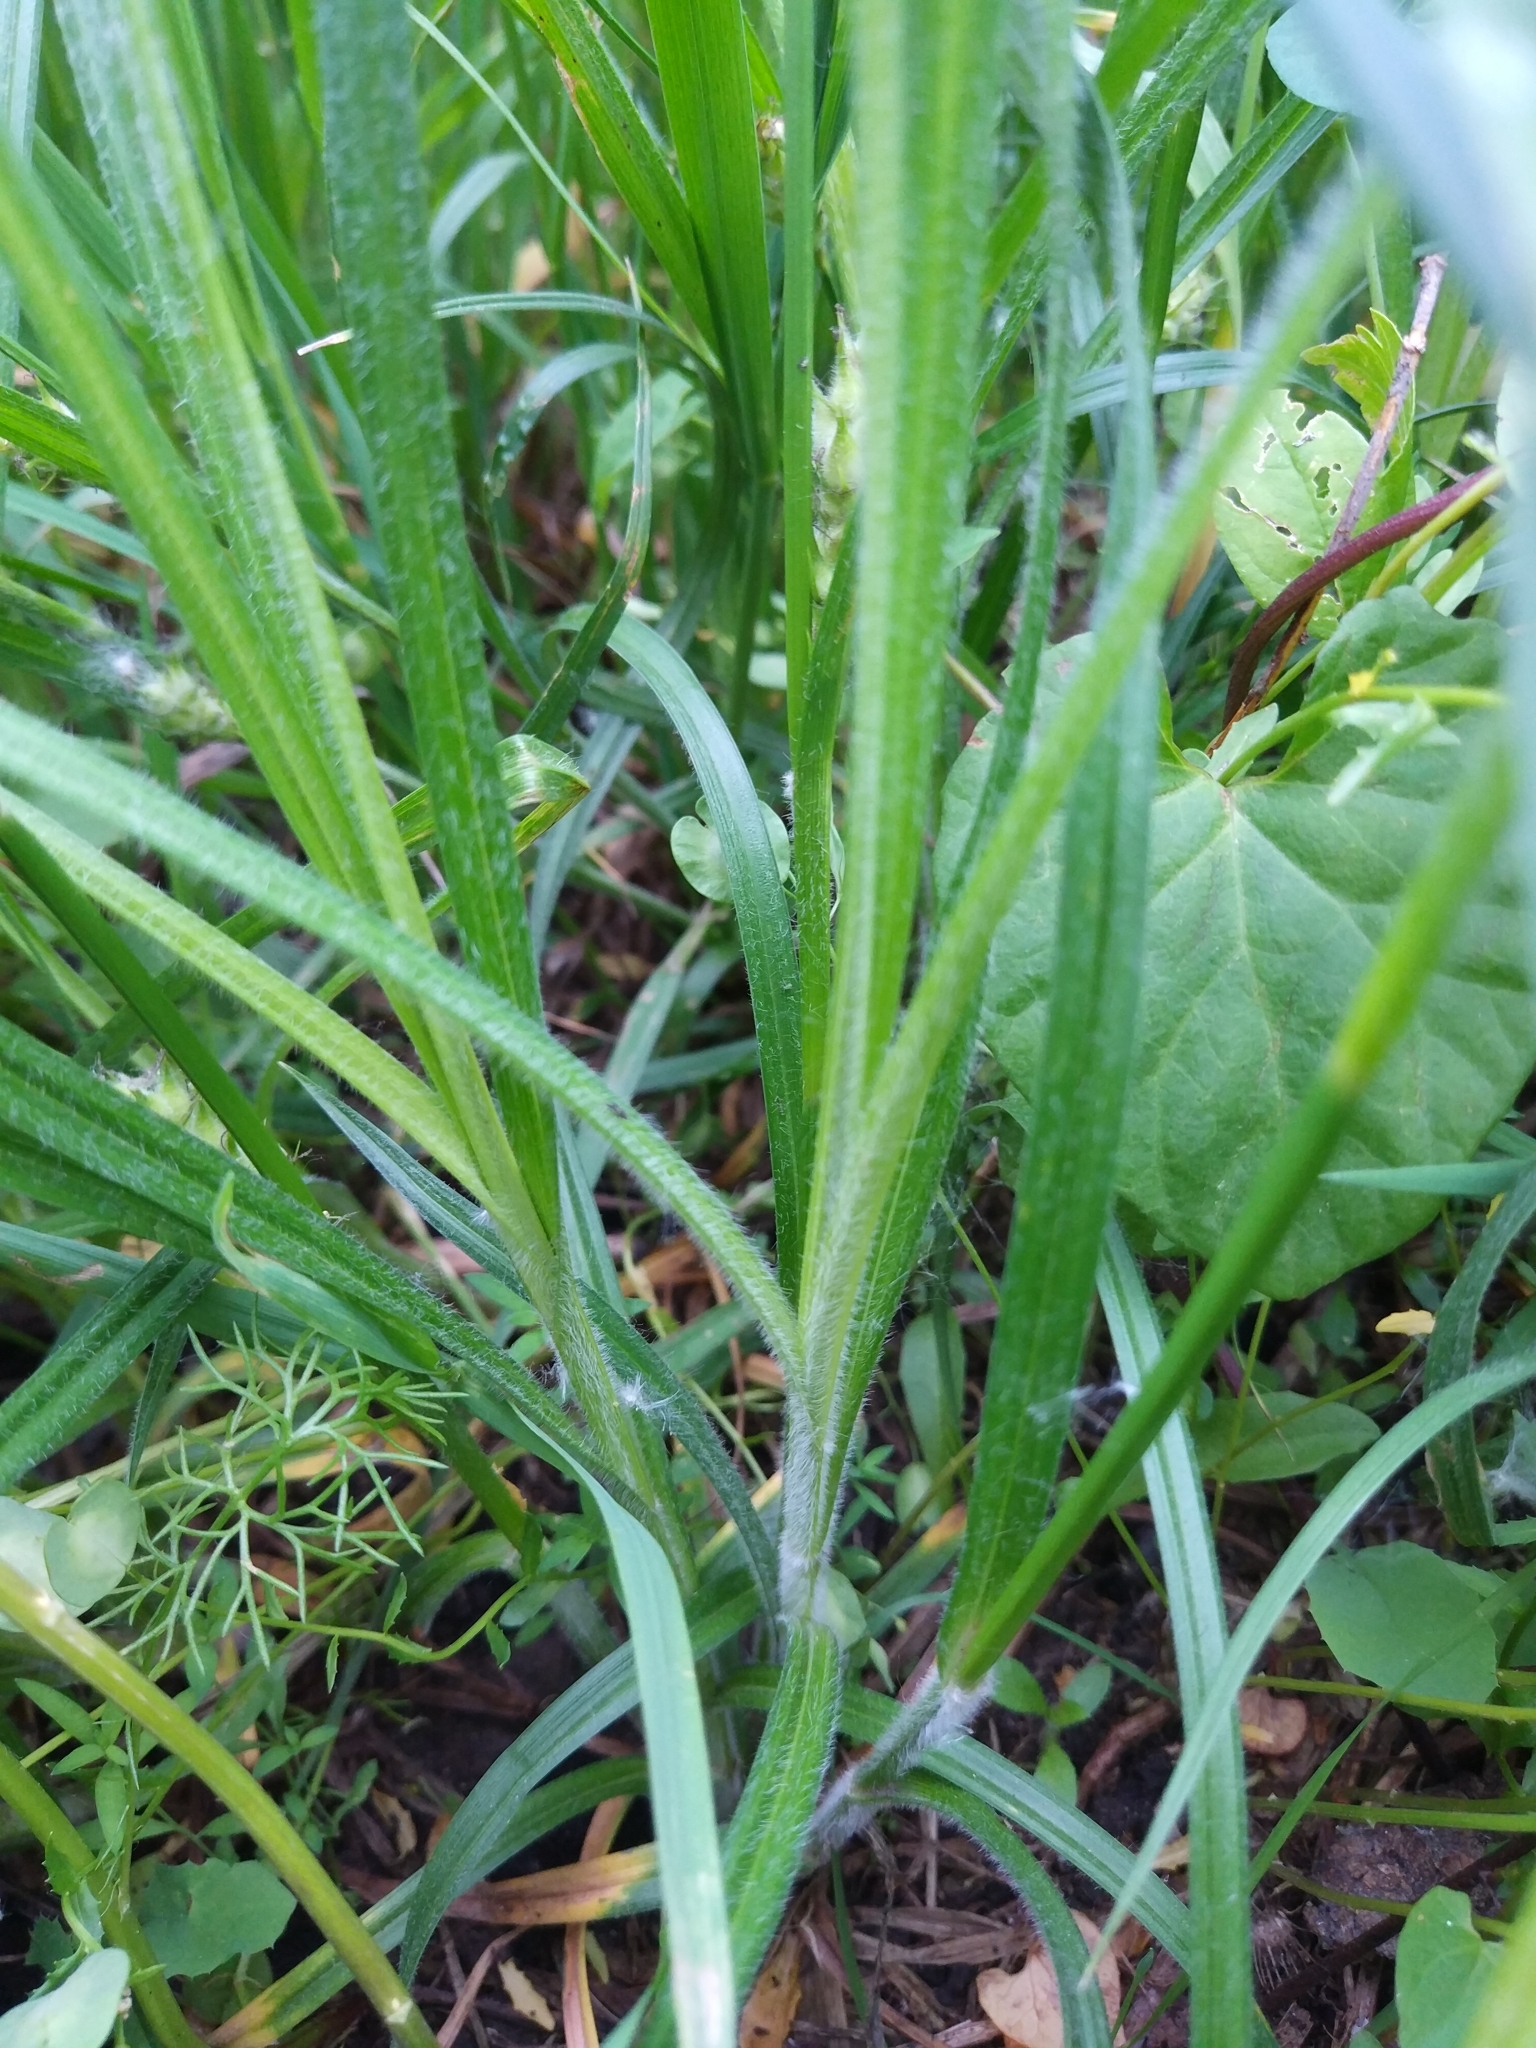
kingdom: Plantae
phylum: Tracheophyta
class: Liliopsida
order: Poales
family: Cyperaceae
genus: Carex
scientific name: Carex hirta
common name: Hairy sedge
